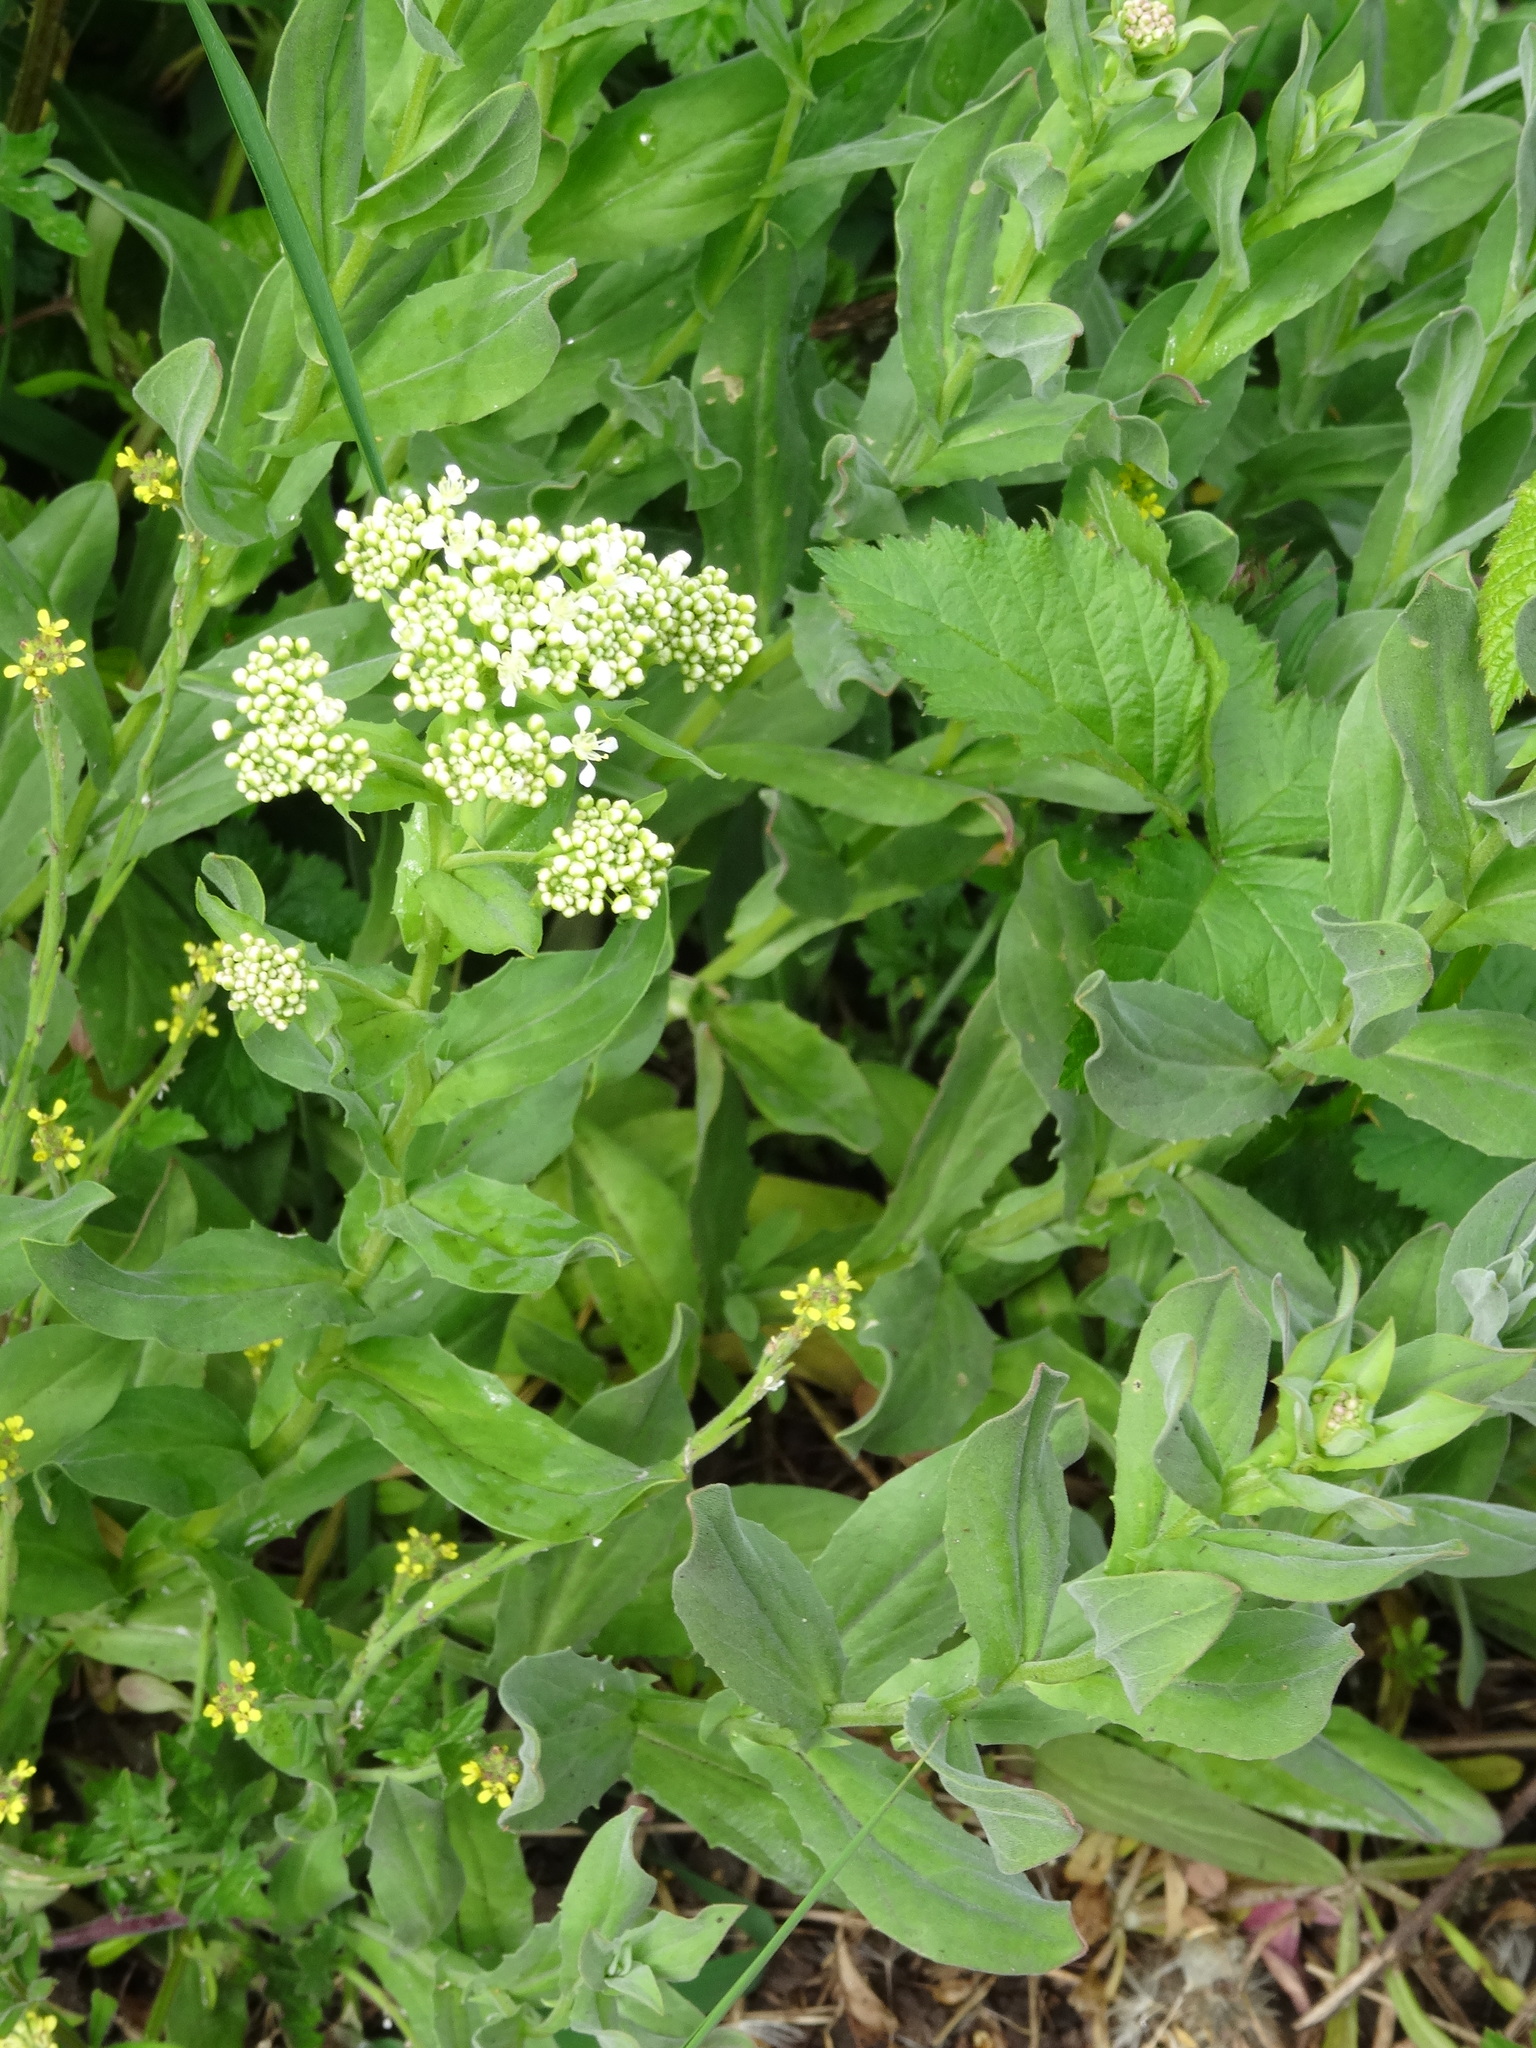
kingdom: Plantae
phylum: Tracheophyta
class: Magnoliopsida
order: Brassicales
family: Brassicaceae
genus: Lepidium
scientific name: Lepidium draba
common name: Hoary cress
